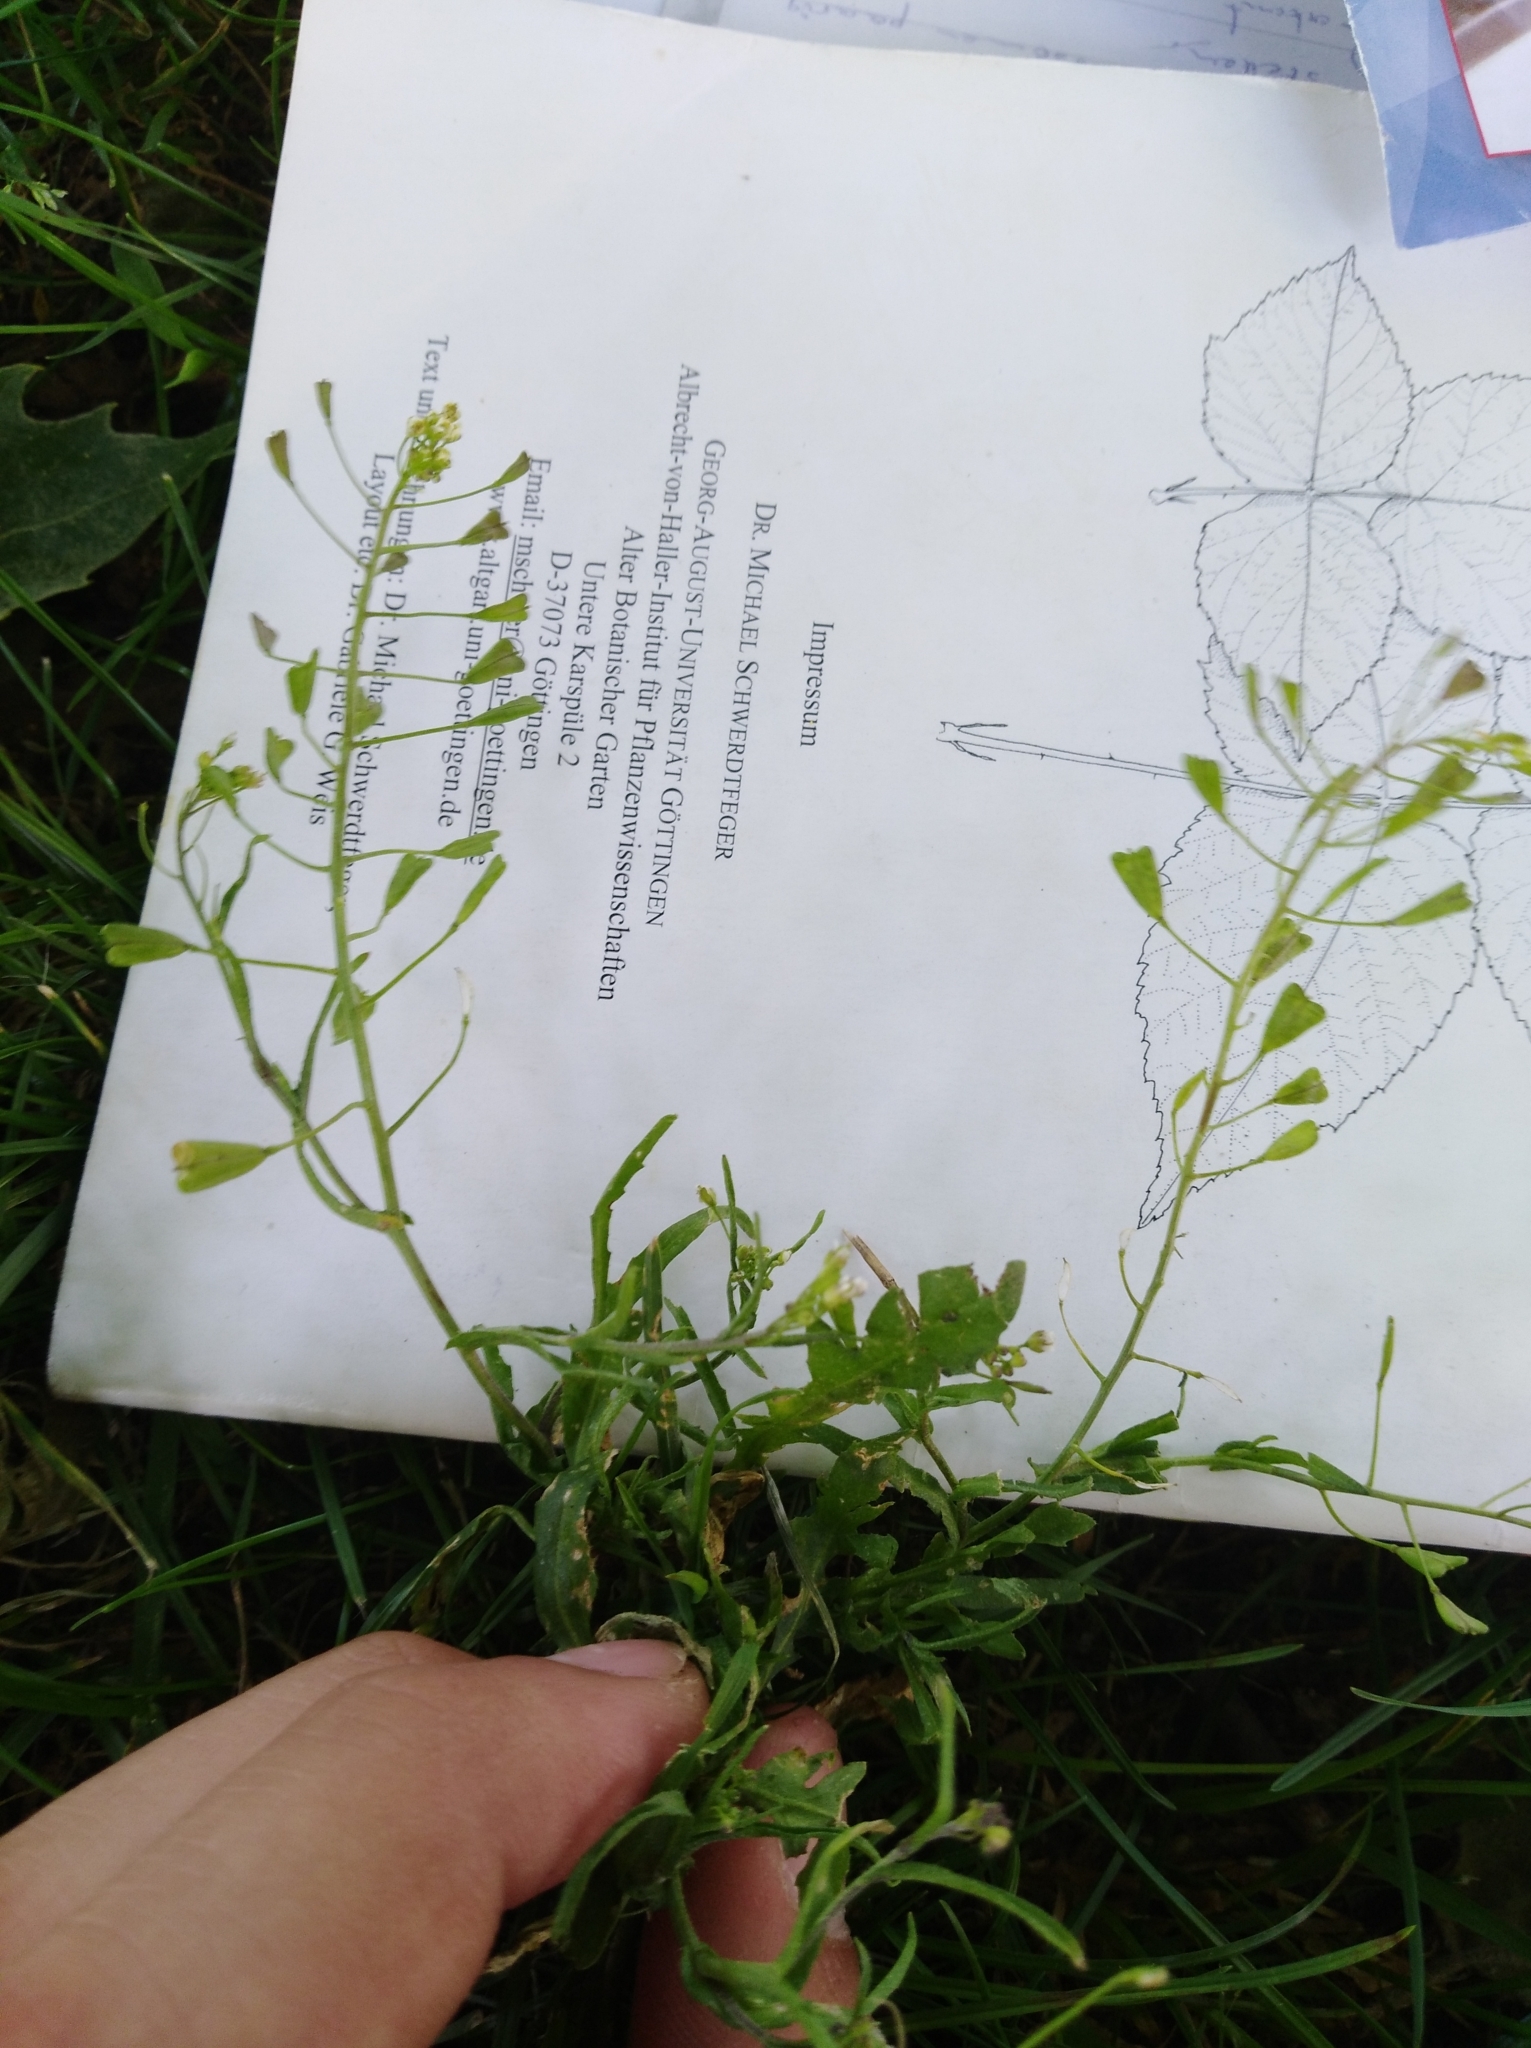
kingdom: Plantae
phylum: Tracheophyta
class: Magnoliopsida
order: Brassicales
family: Brassicaceae
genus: Capsella
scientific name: Capsella bursa-pastoris
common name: Shepherd's purse
